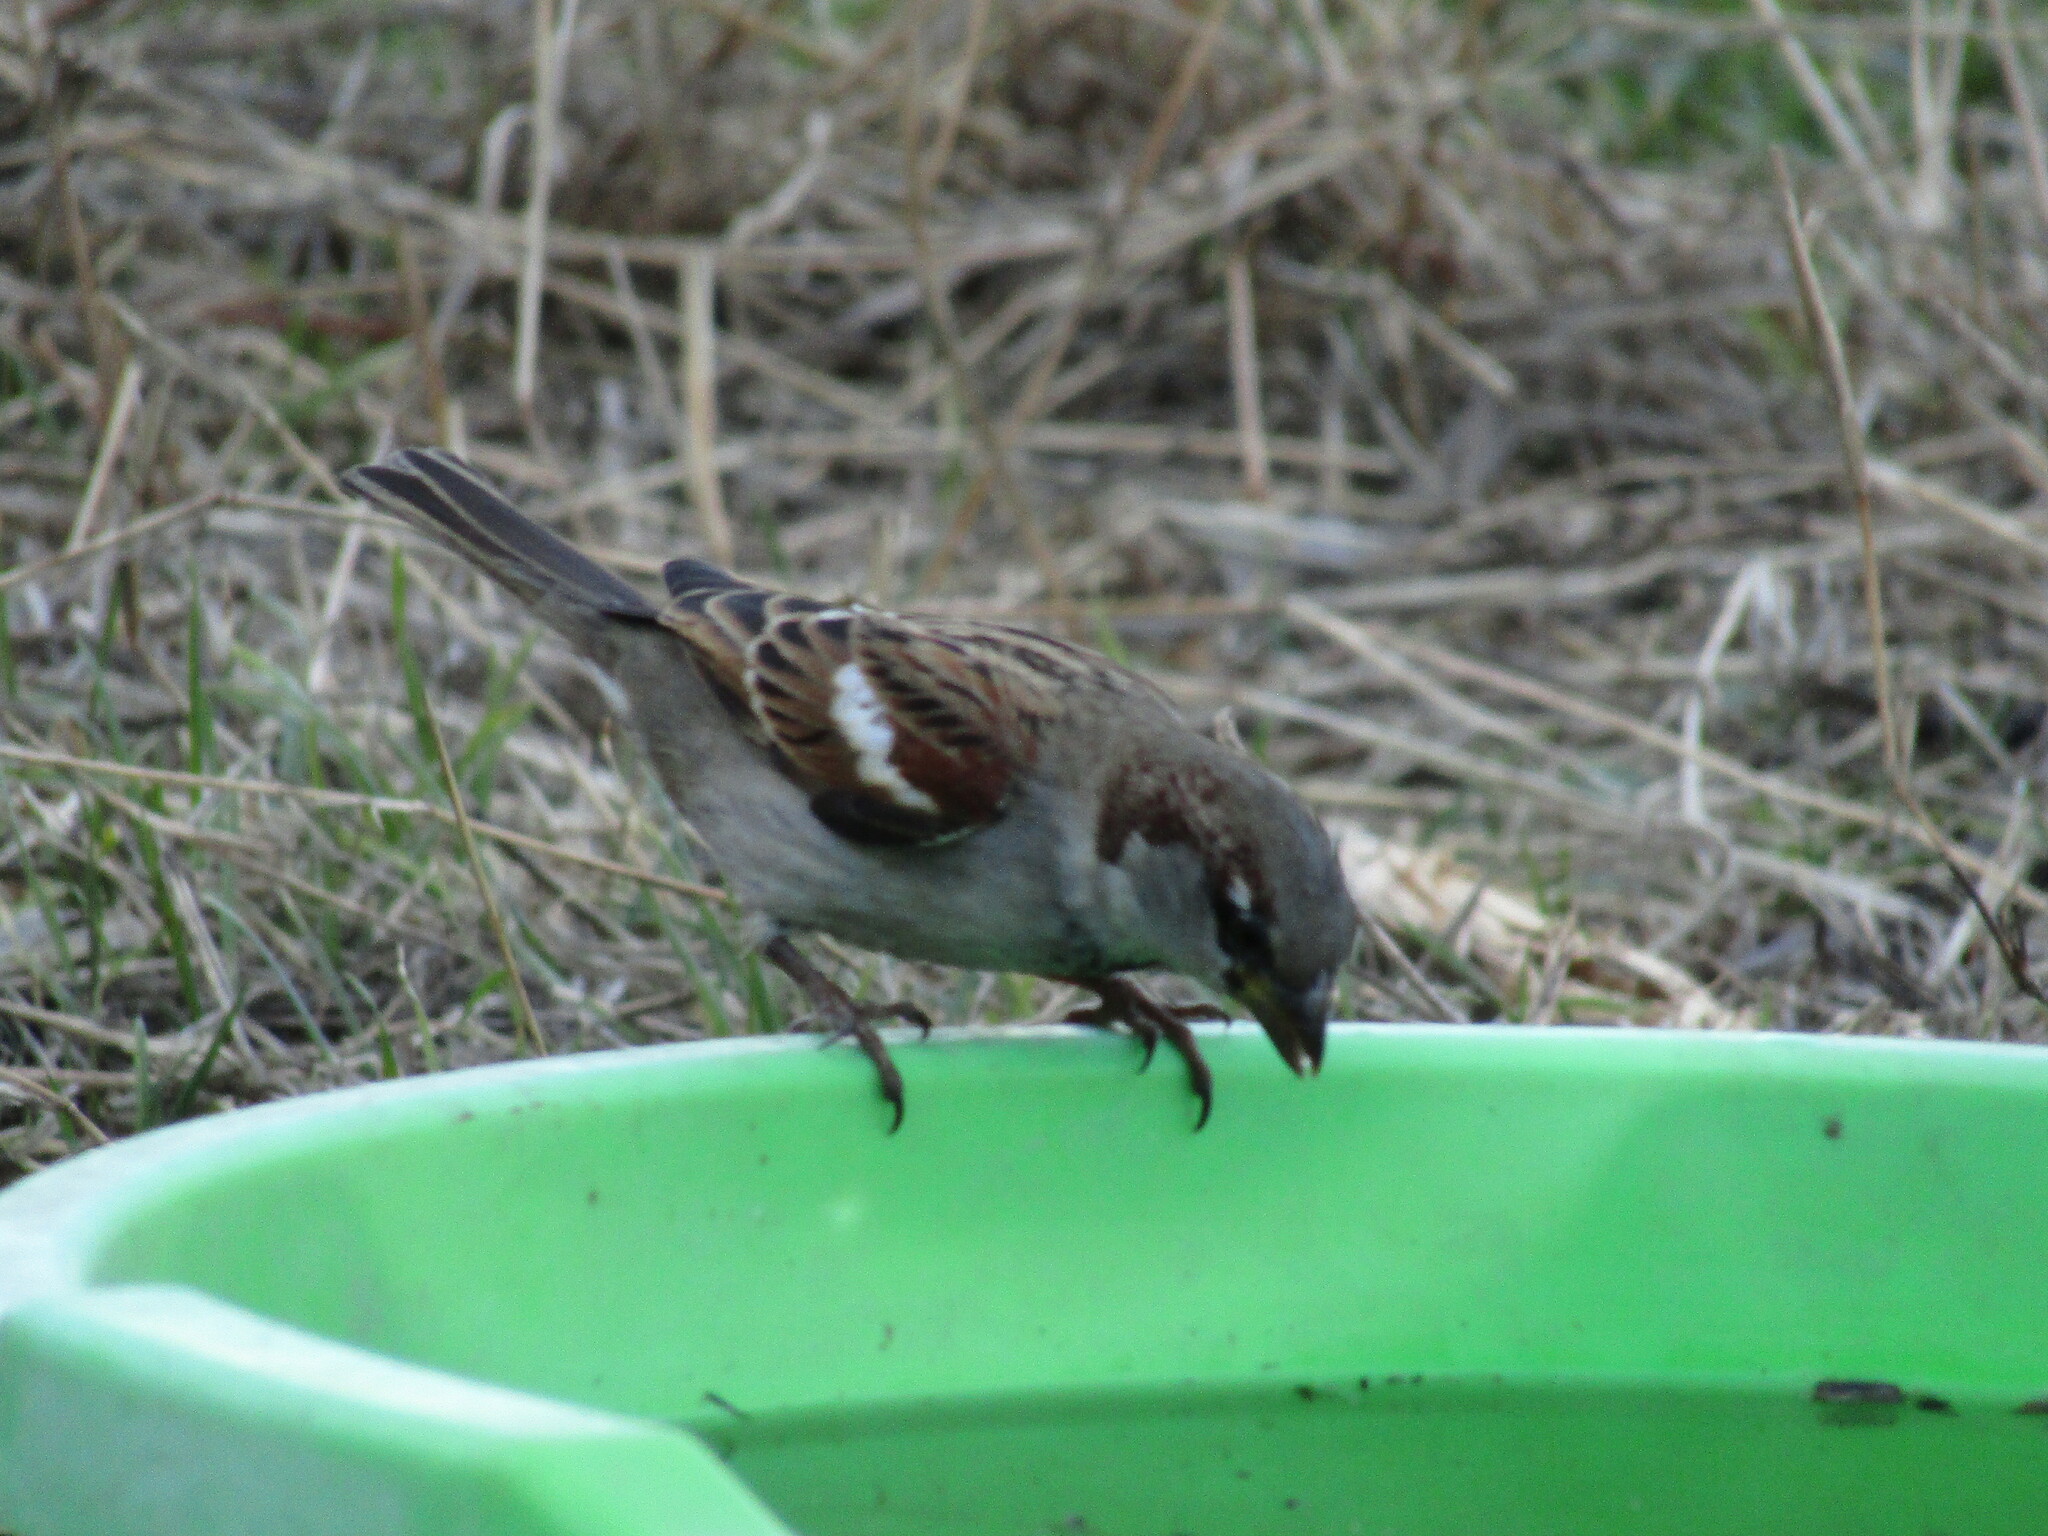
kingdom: Animalia
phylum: Chordata
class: Aves
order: Passeriformes
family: Passeridae
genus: Passer
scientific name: Passer domesticus
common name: House sparrow
